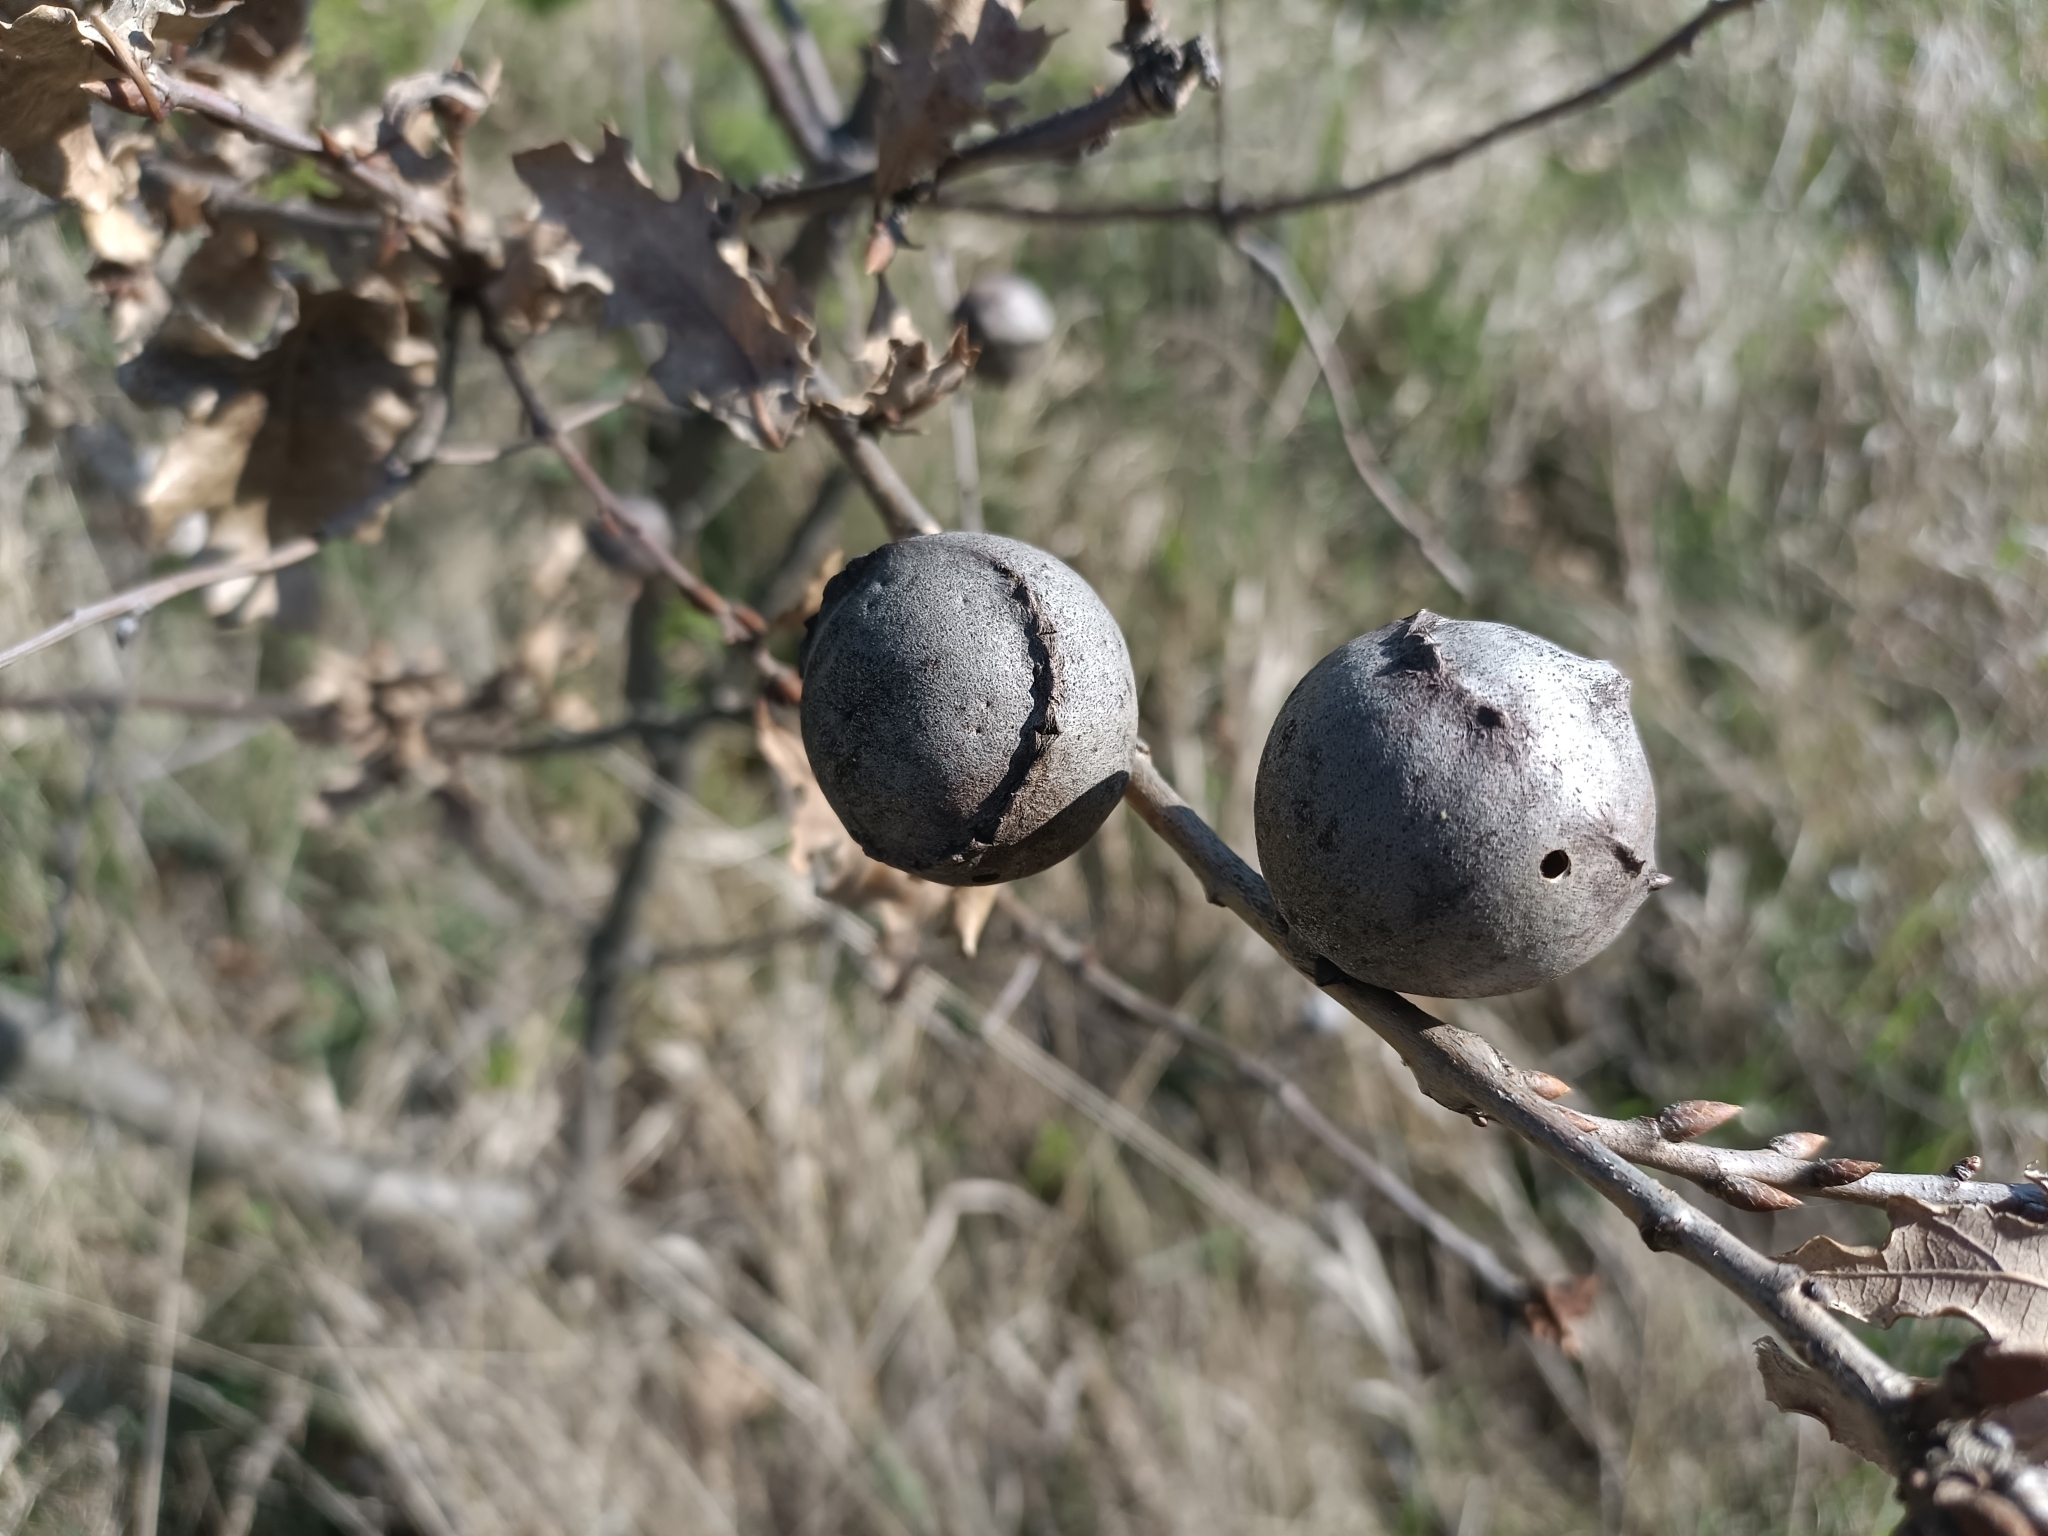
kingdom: Animalia
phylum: Arthropoda
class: Insecta
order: Hymenoptera
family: Cynipidae
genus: Andricus
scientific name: Andricus quercustozae
